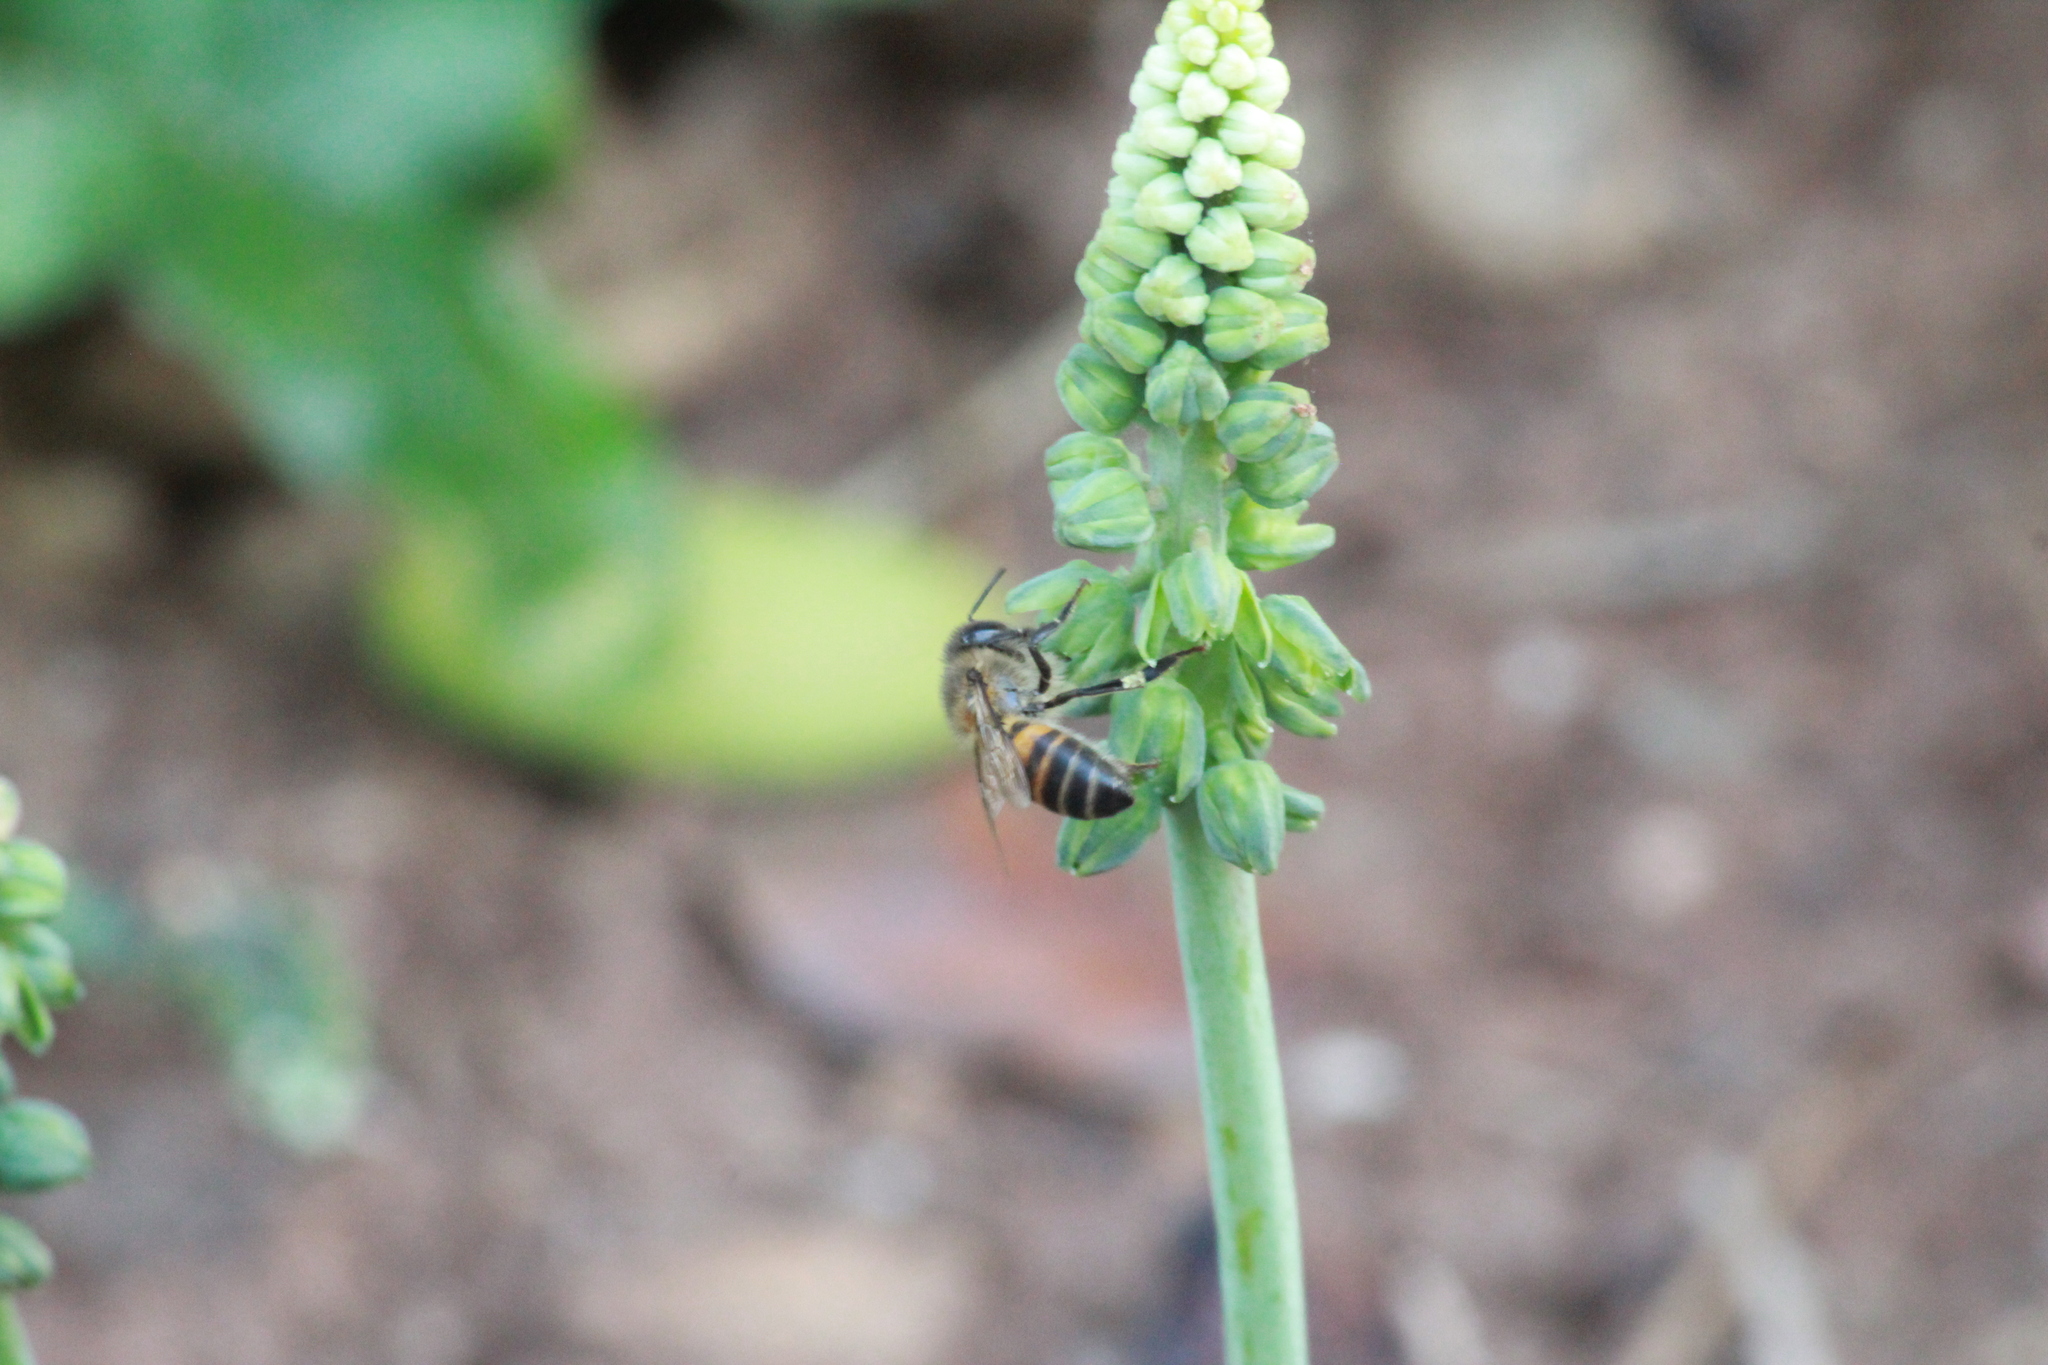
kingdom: Animalia
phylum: Arthropoda
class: Insecta
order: Hymenoptera
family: Apidae
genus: Apis
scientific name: Apis mellifera
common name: Honey bee
